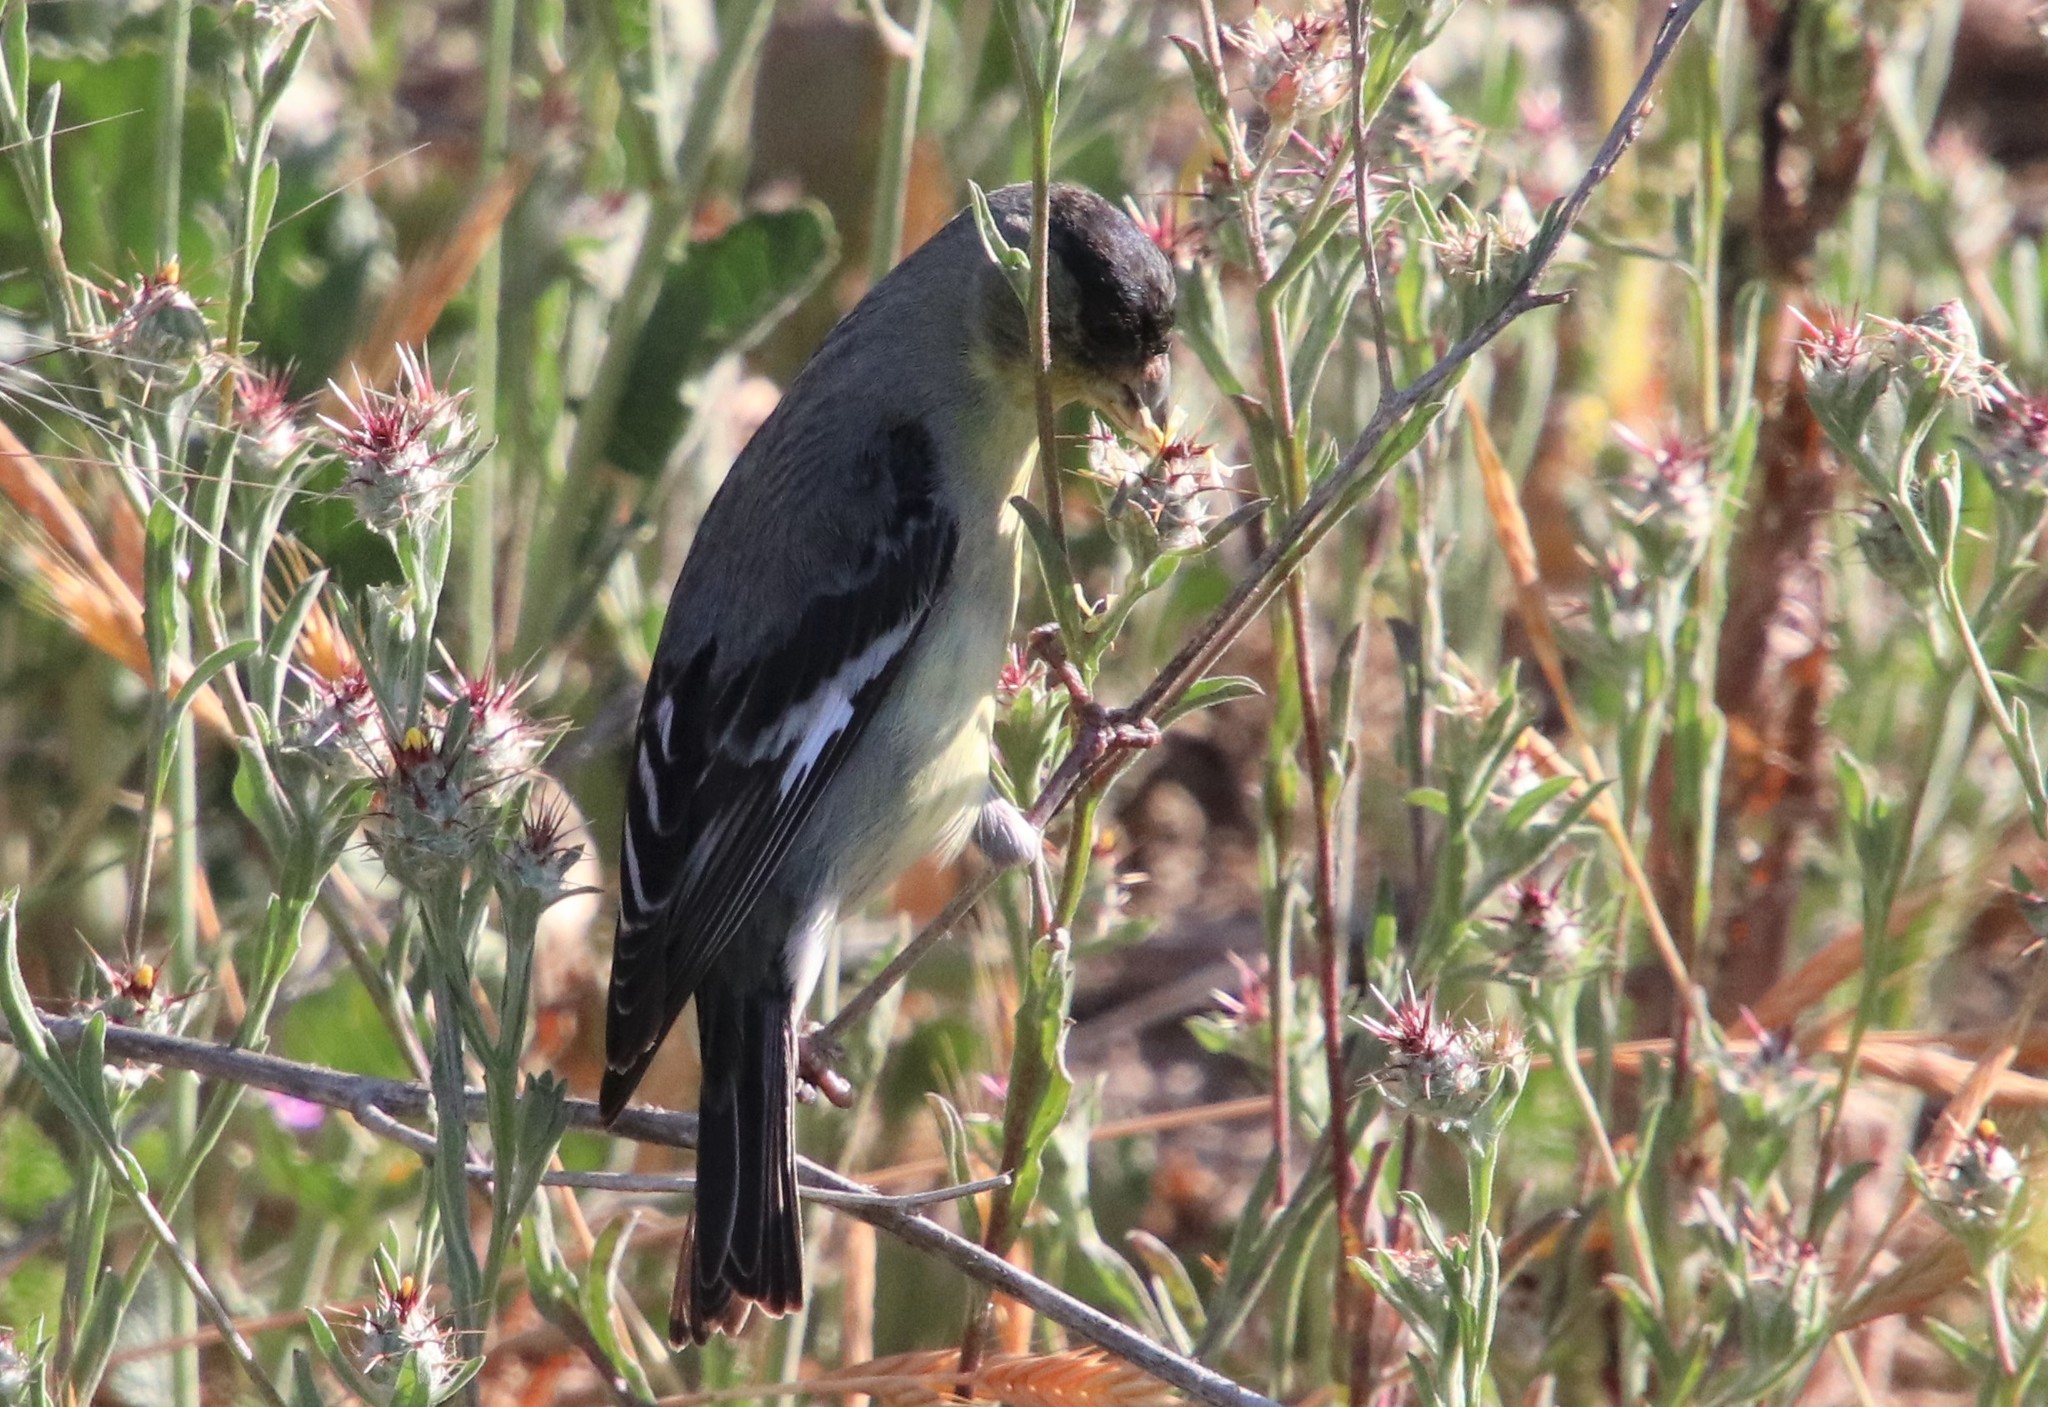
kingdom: Animalia
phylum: Chordata
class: Aves
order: Passeriformes
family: Fringillidae
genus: Spinus
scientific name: Spinus psaltria
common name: Lesser goldfinch
